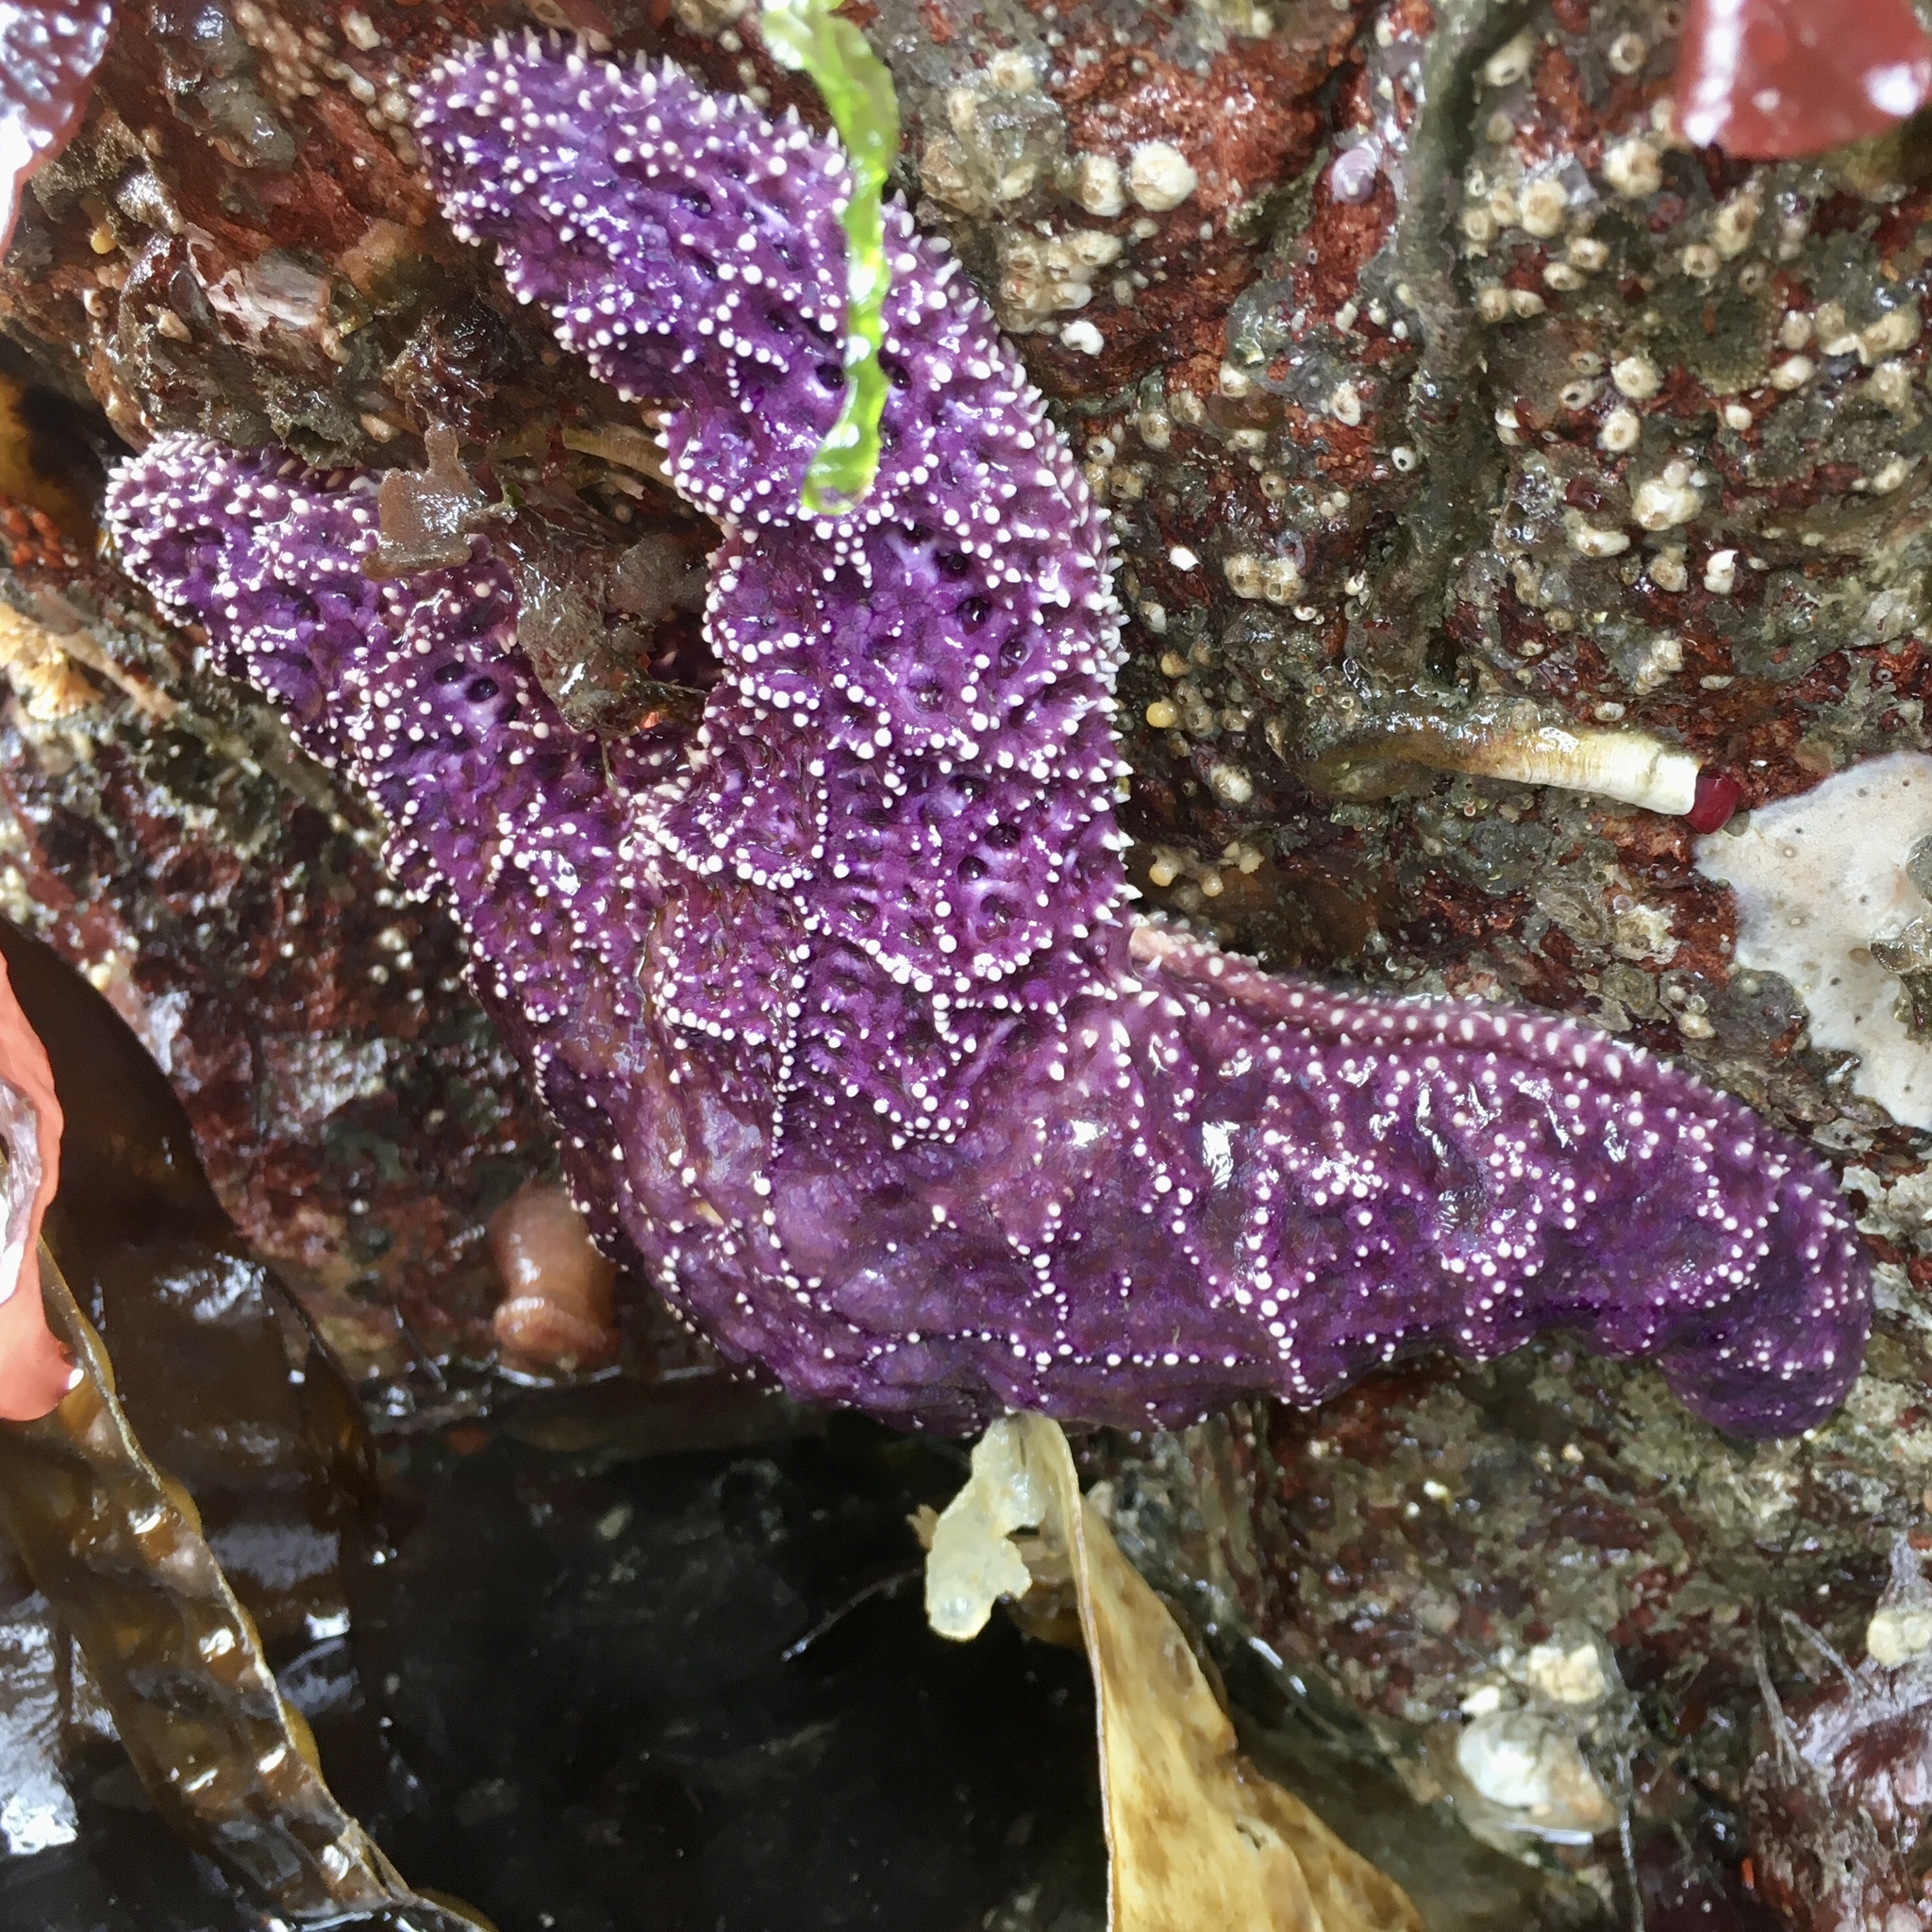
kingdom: Animalia
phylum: Echinodermata
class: Asteroidea
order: Forcipulatida
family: Asteriidae
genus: Pisaster
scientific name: Pisaster ochraceus
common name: Ochre stars
